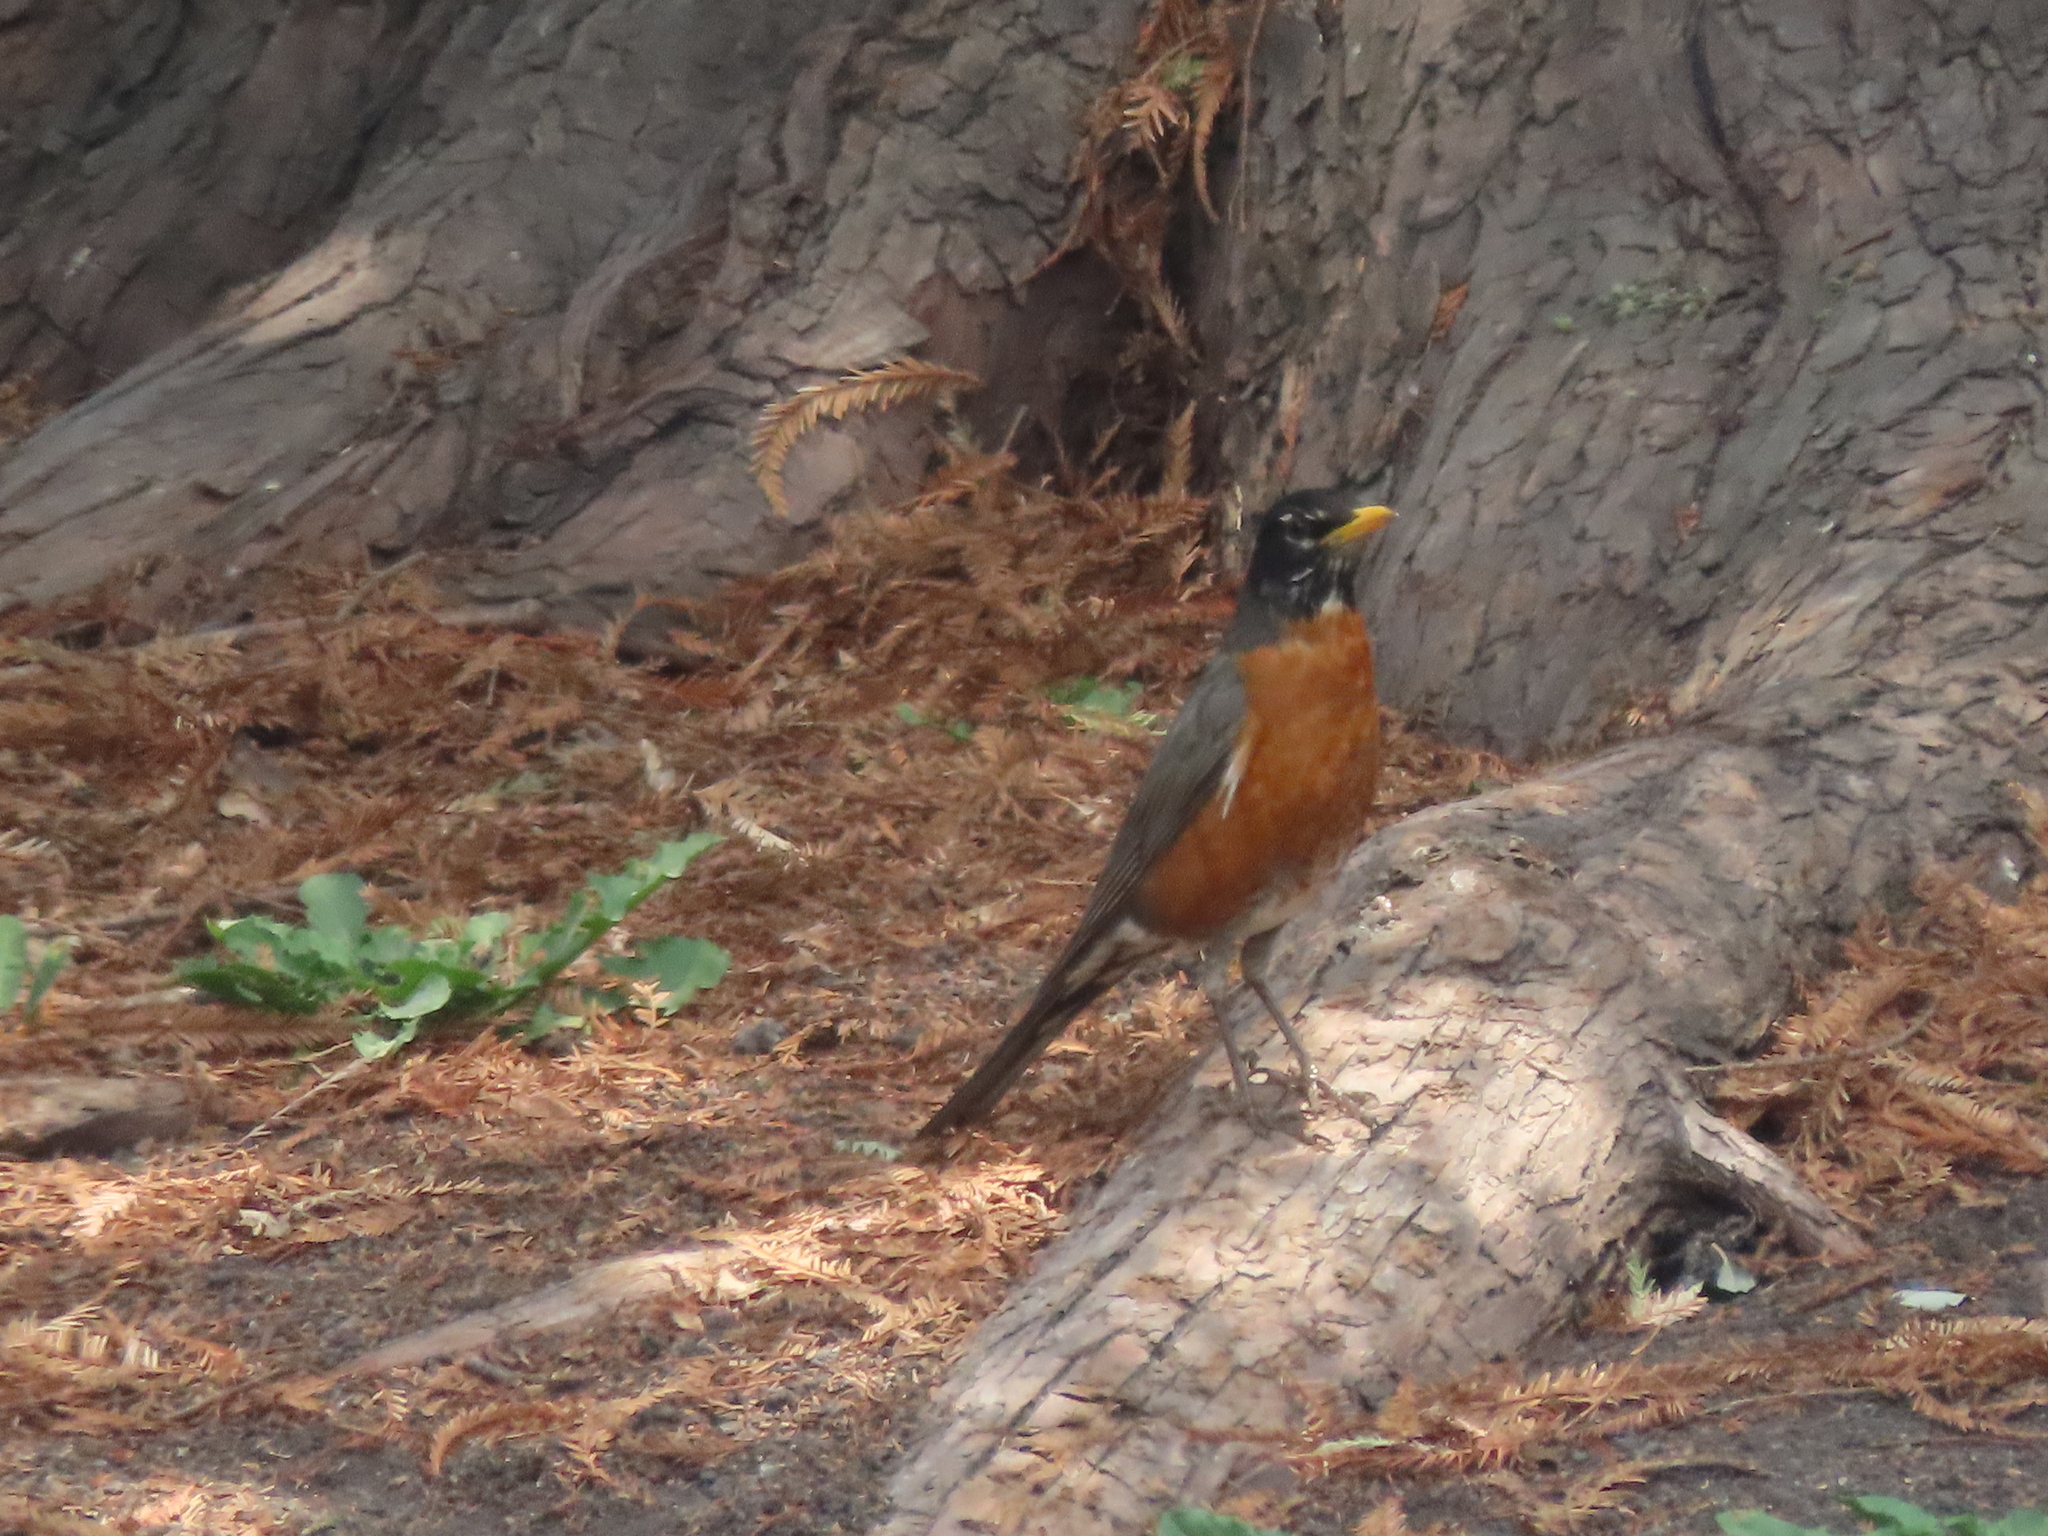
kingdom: Animalia
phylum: Chordata
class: Aves
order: Passeriformes
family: Turdidae
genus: Turdus
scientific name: Turdus migratorius
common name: American robin
